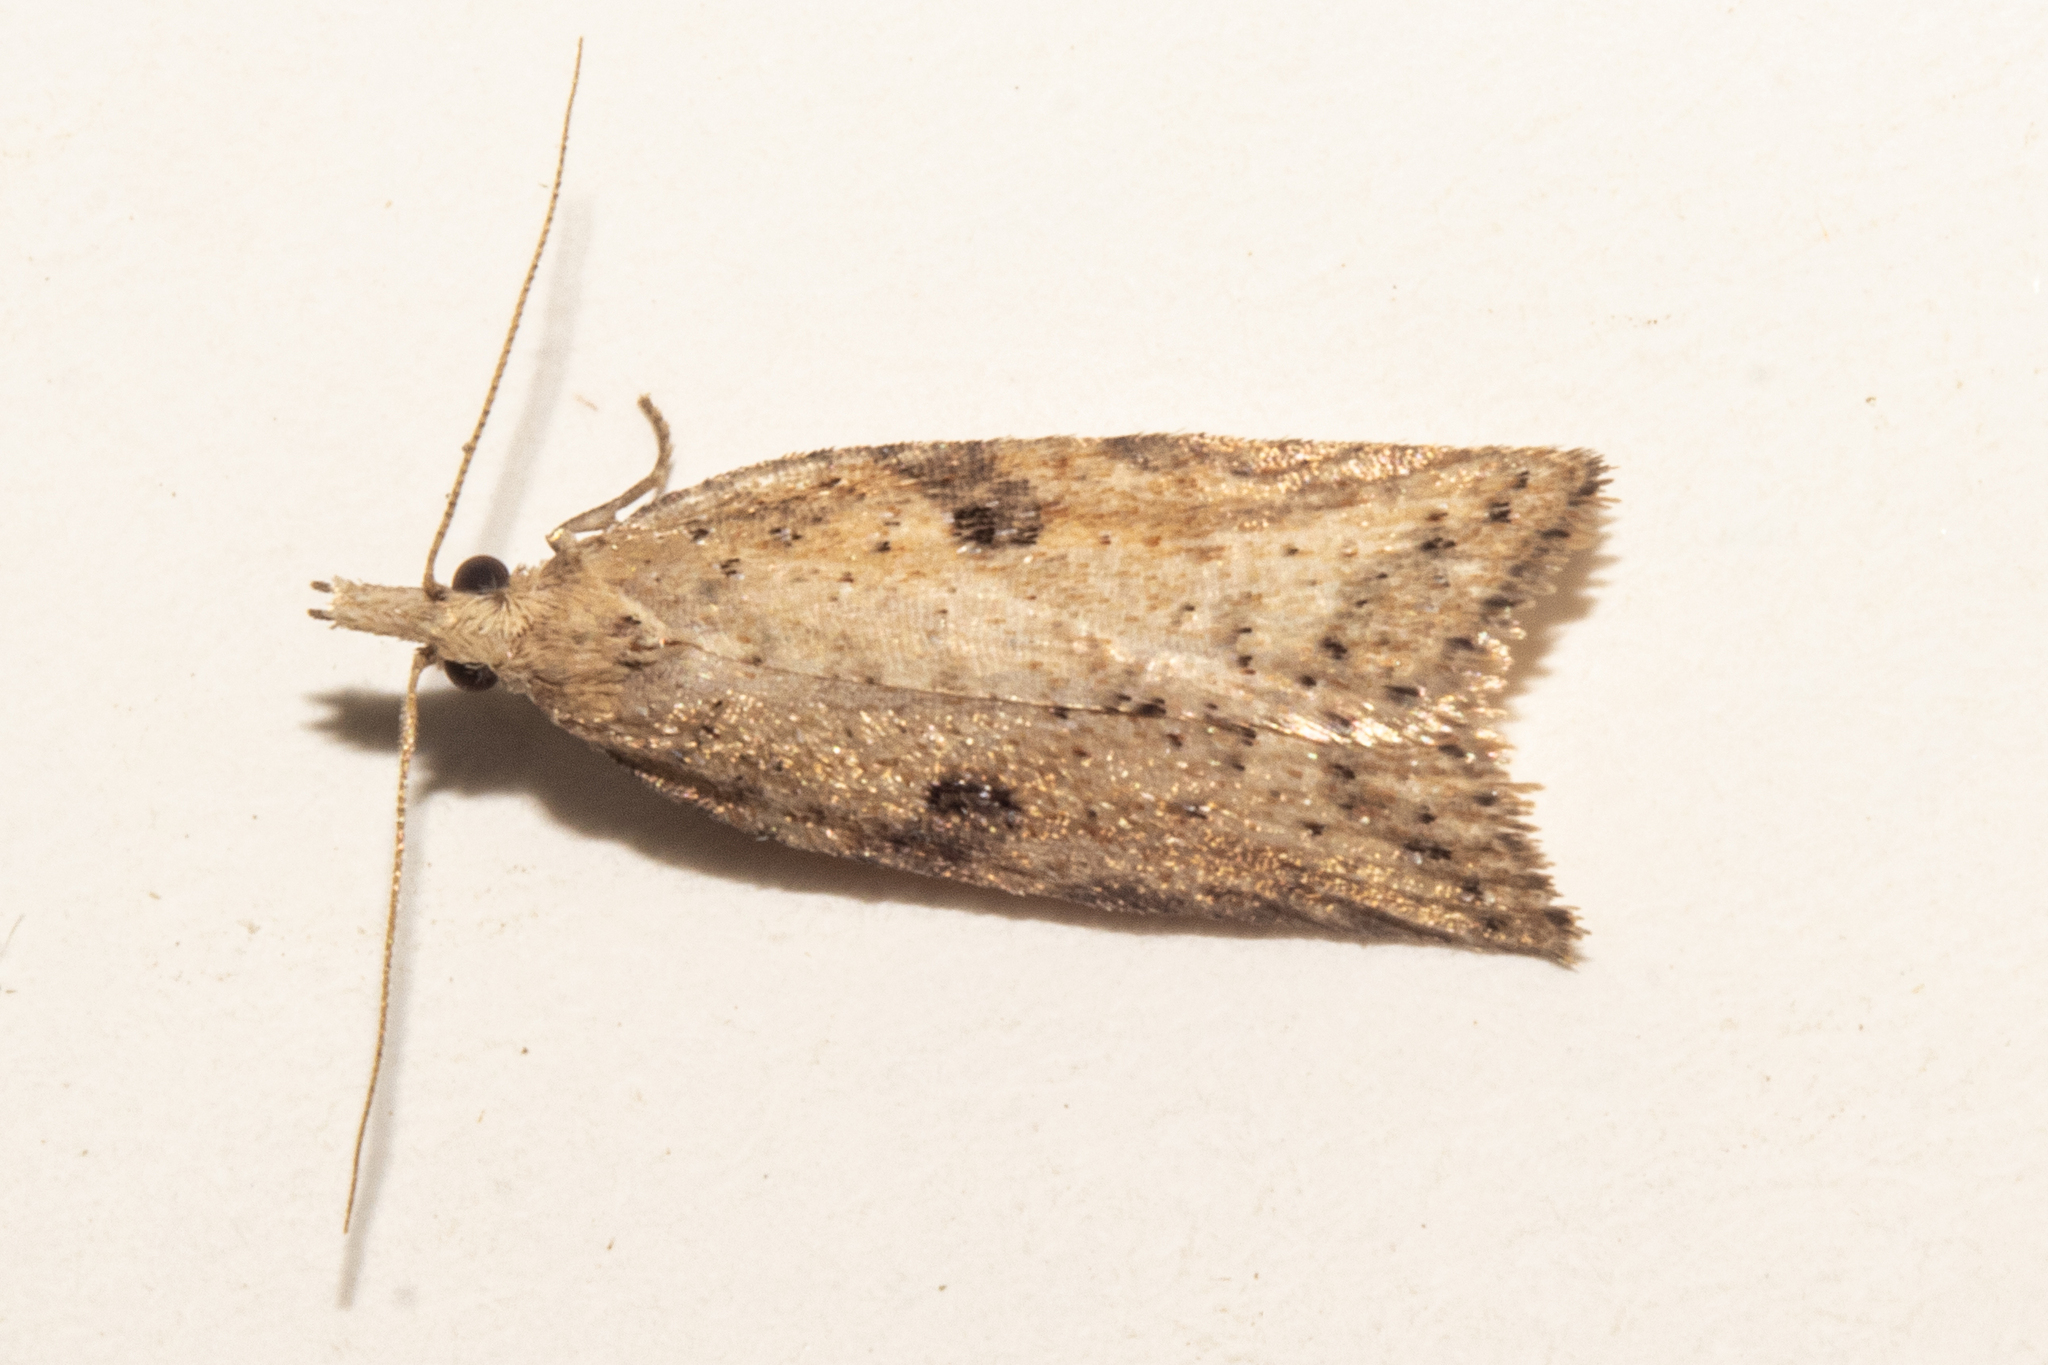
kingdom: Animalia
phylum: Arthropoda
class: Insecta
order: Lepidoptera
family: Tortricidae
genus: Apoctena
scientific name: Apoctena persecta
